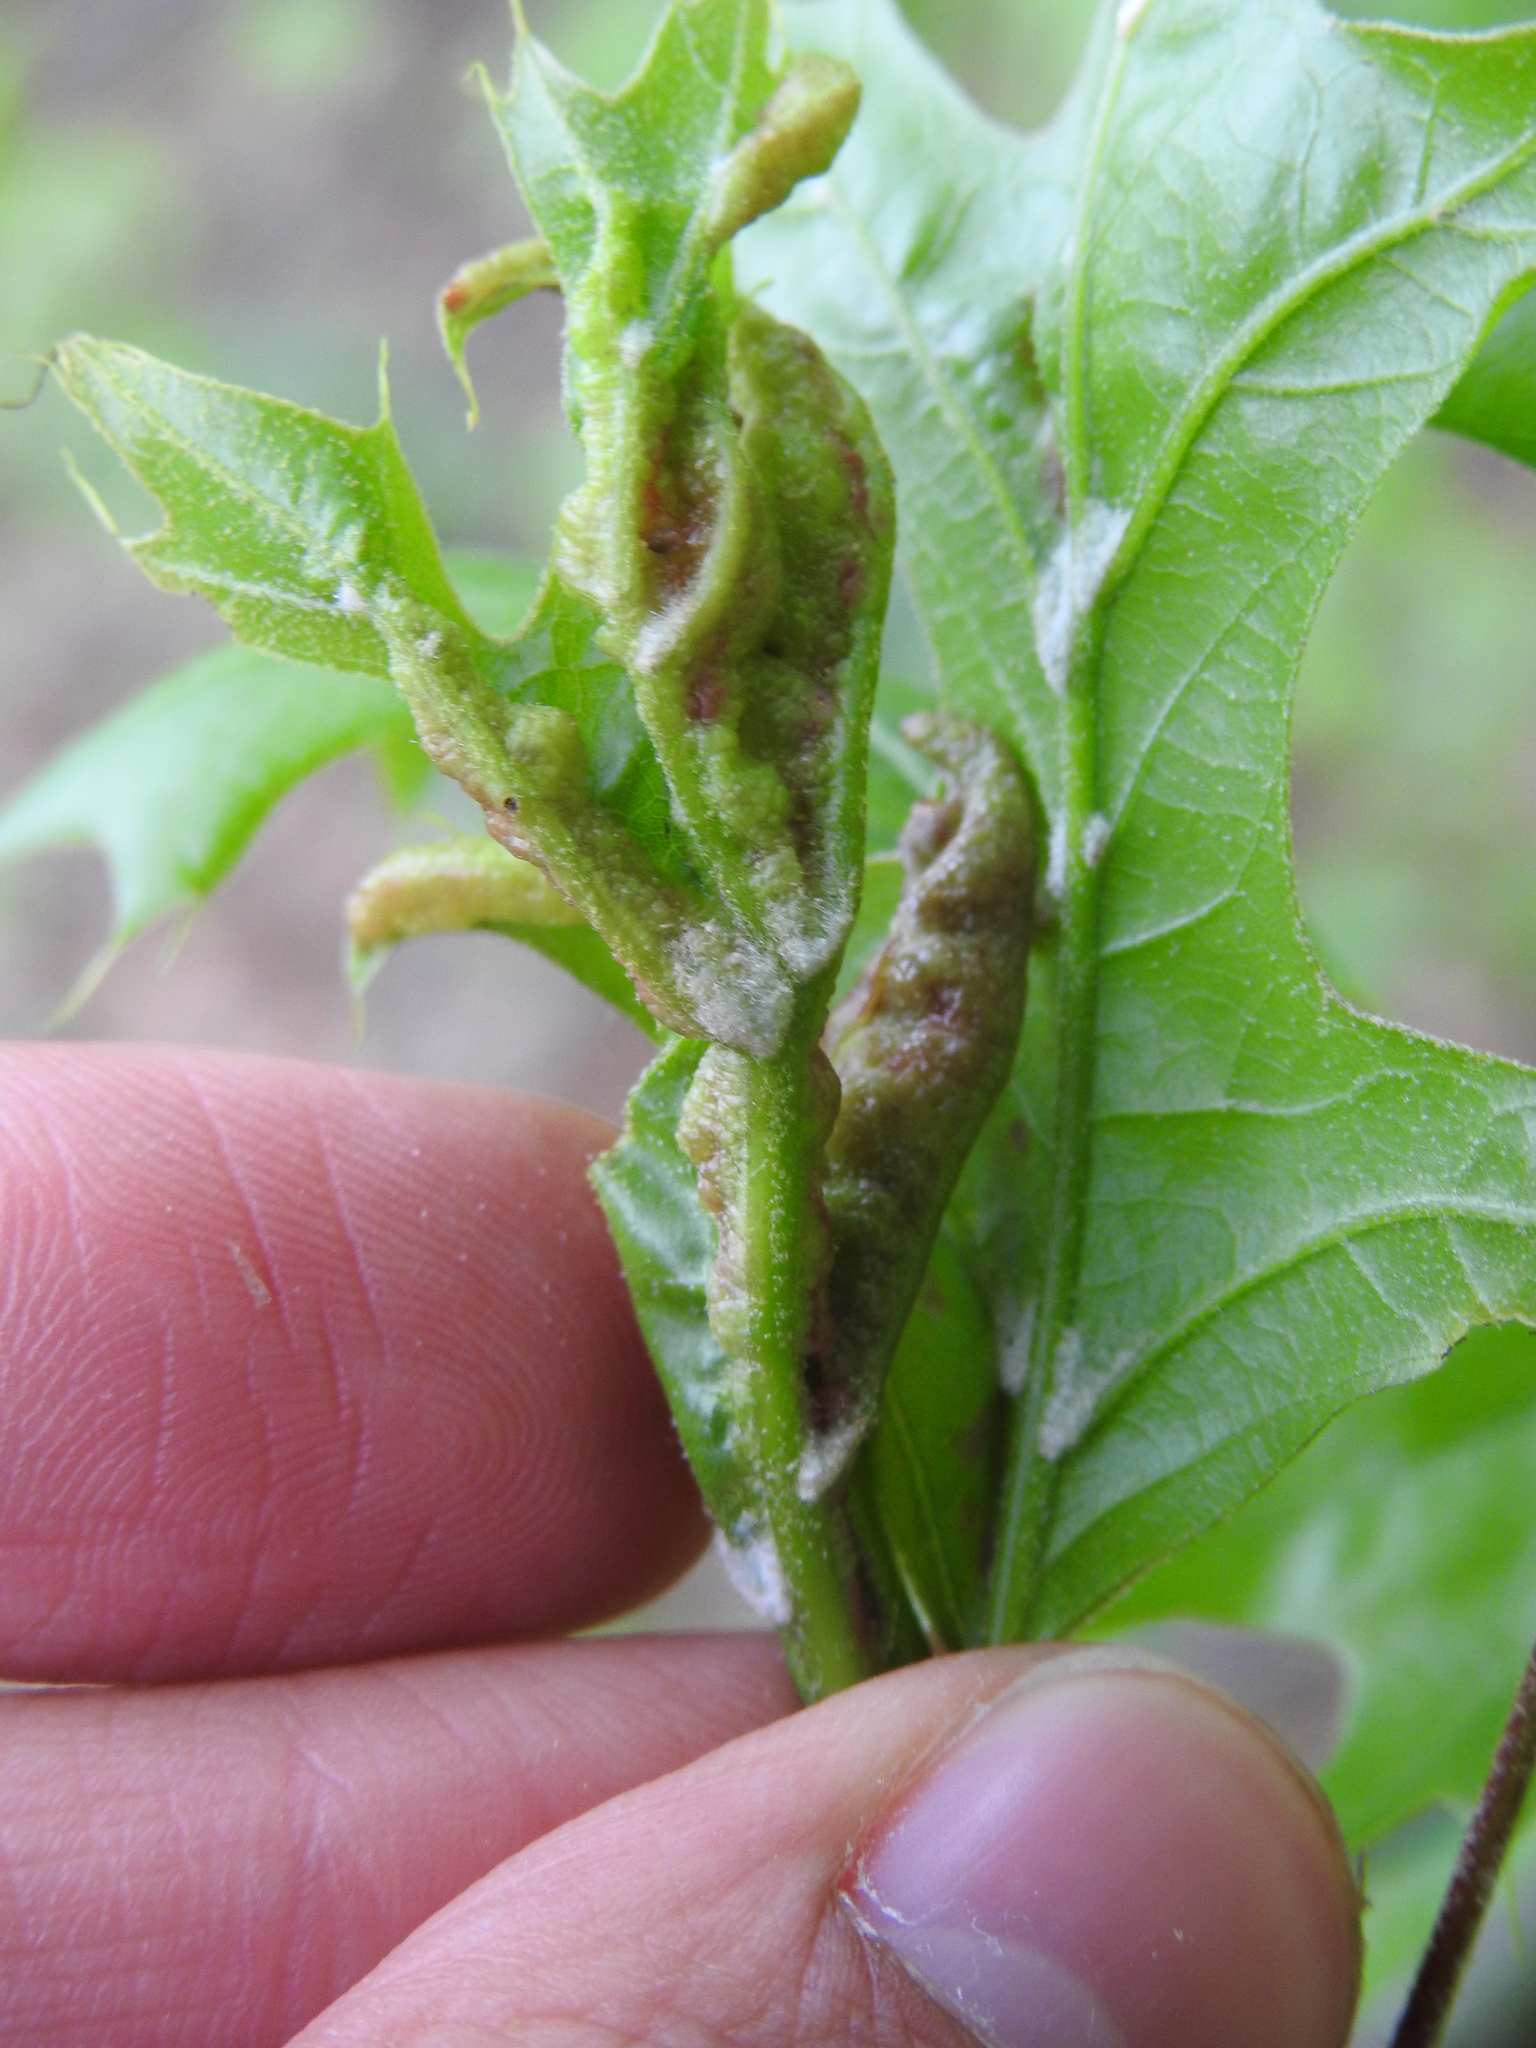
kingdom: Animalia
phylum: Arthropoda
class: Insecta
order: Diptera
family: Cecidomyiidae
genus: Macrodiplosis
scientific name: Macrodiplosis q-orucum
